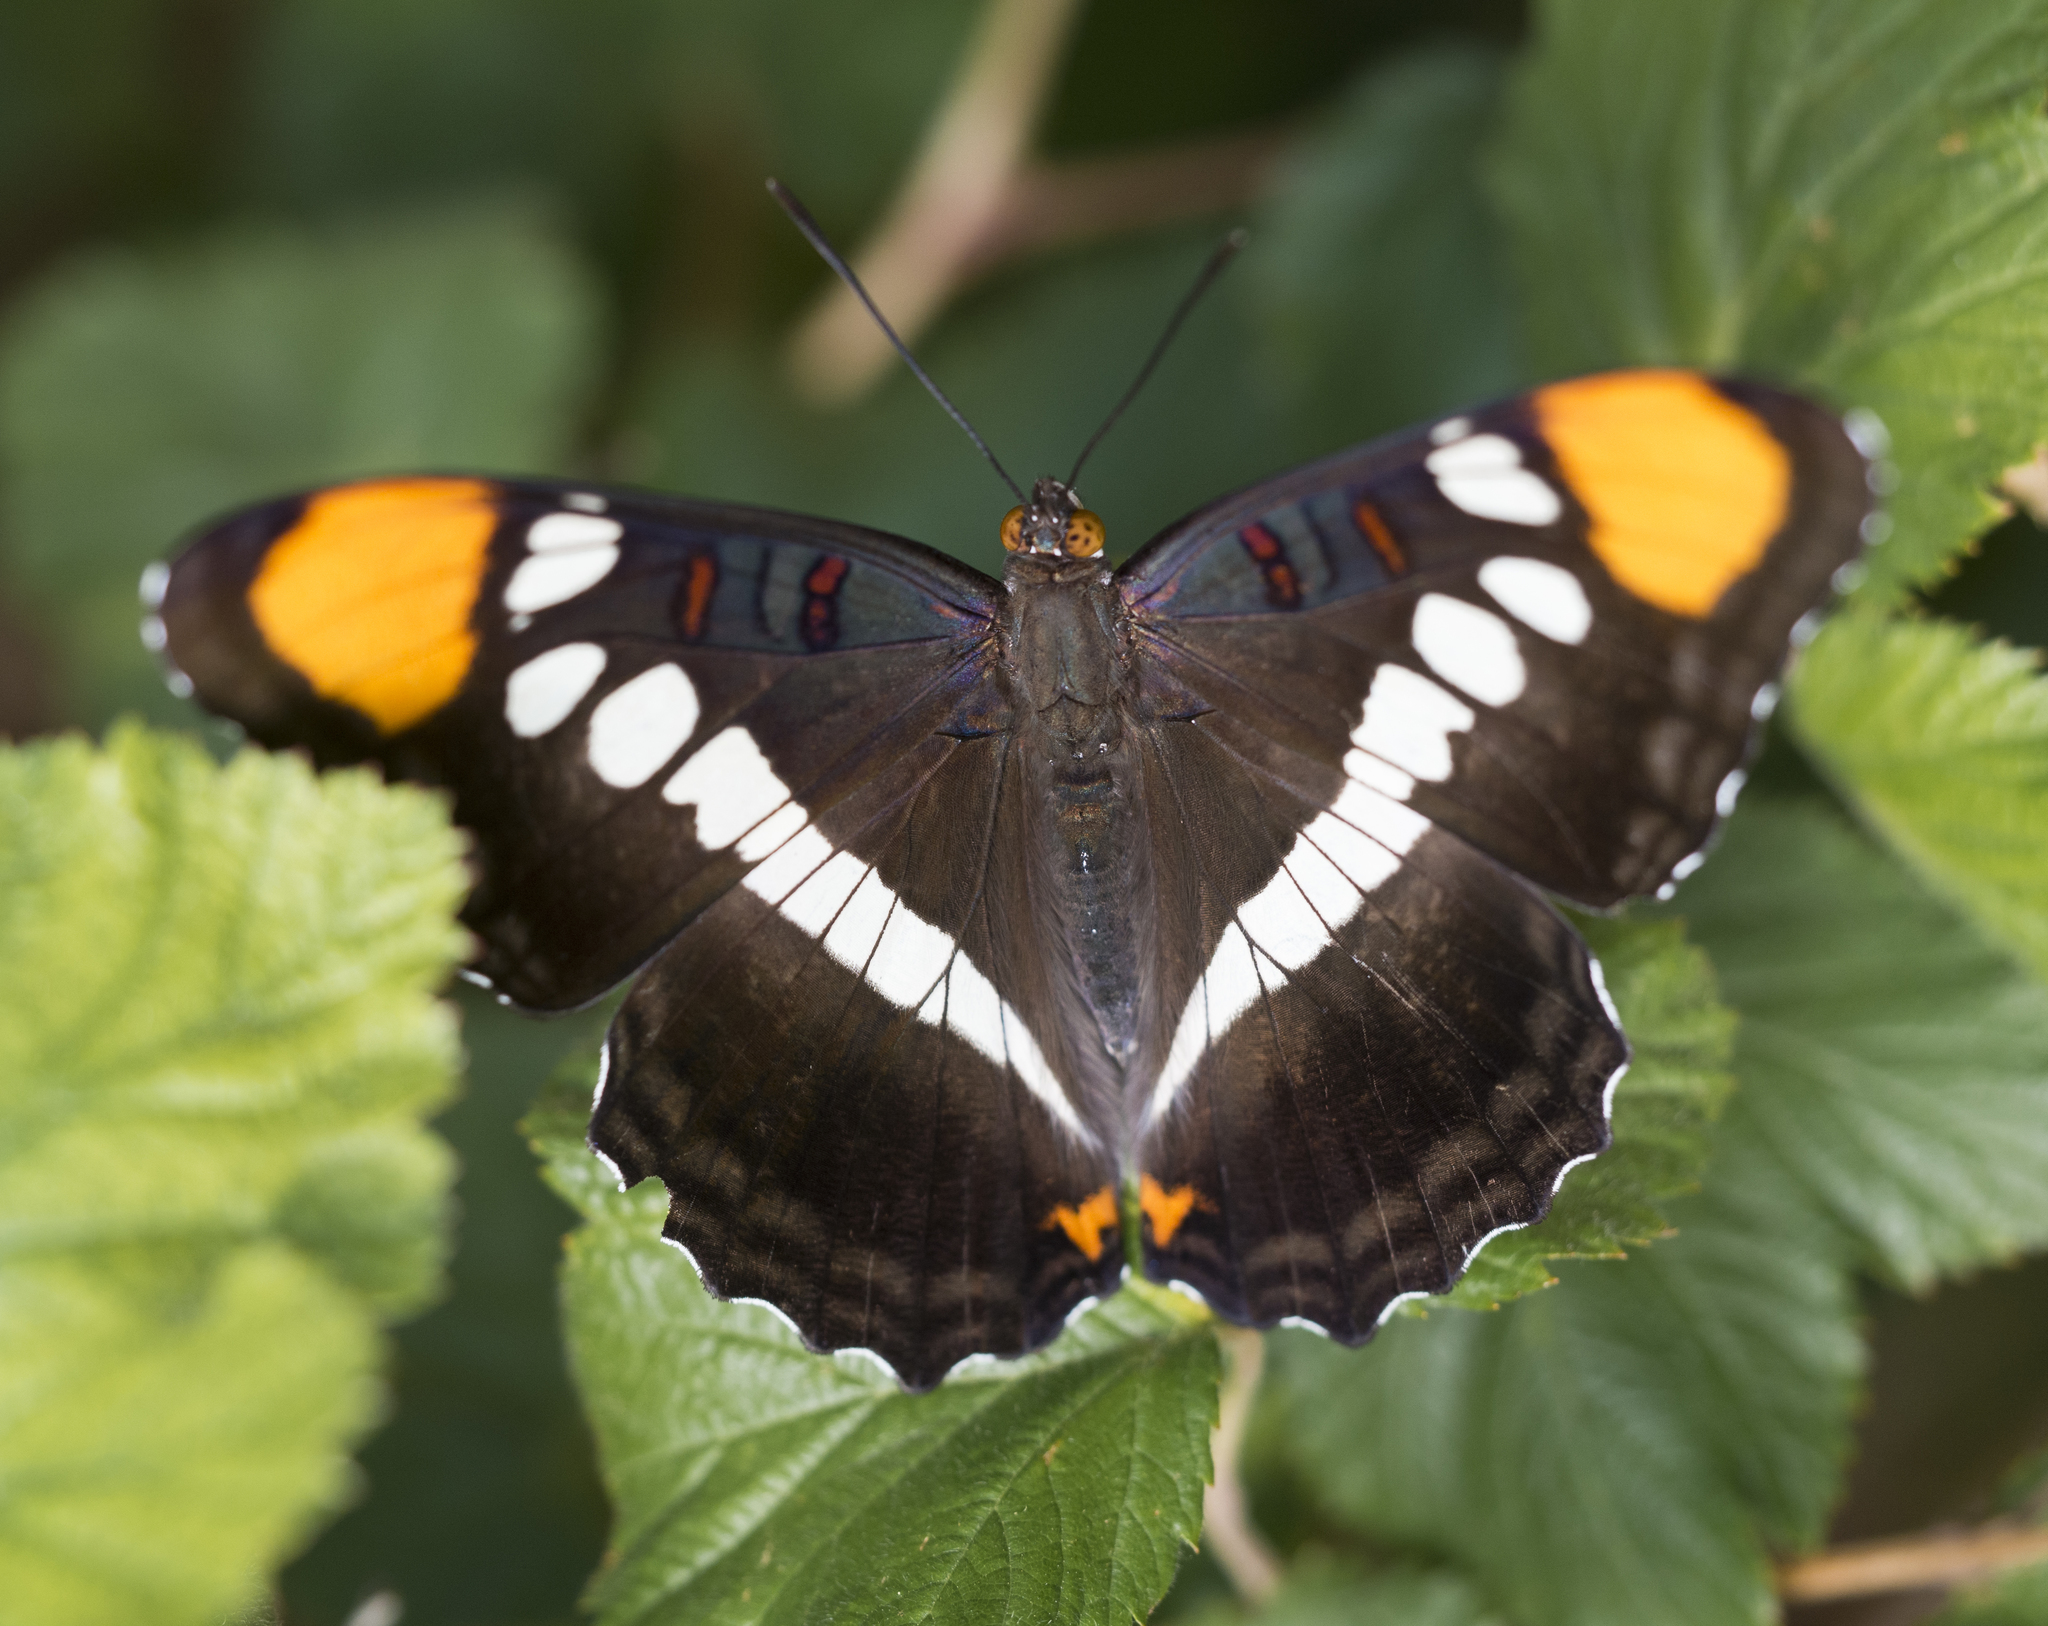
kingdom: Animalia
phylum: Arthropoda
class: Insecta
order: Lepidoptera
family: Nymphalidae
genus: Limenitis
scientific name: Limenitis bredowii
